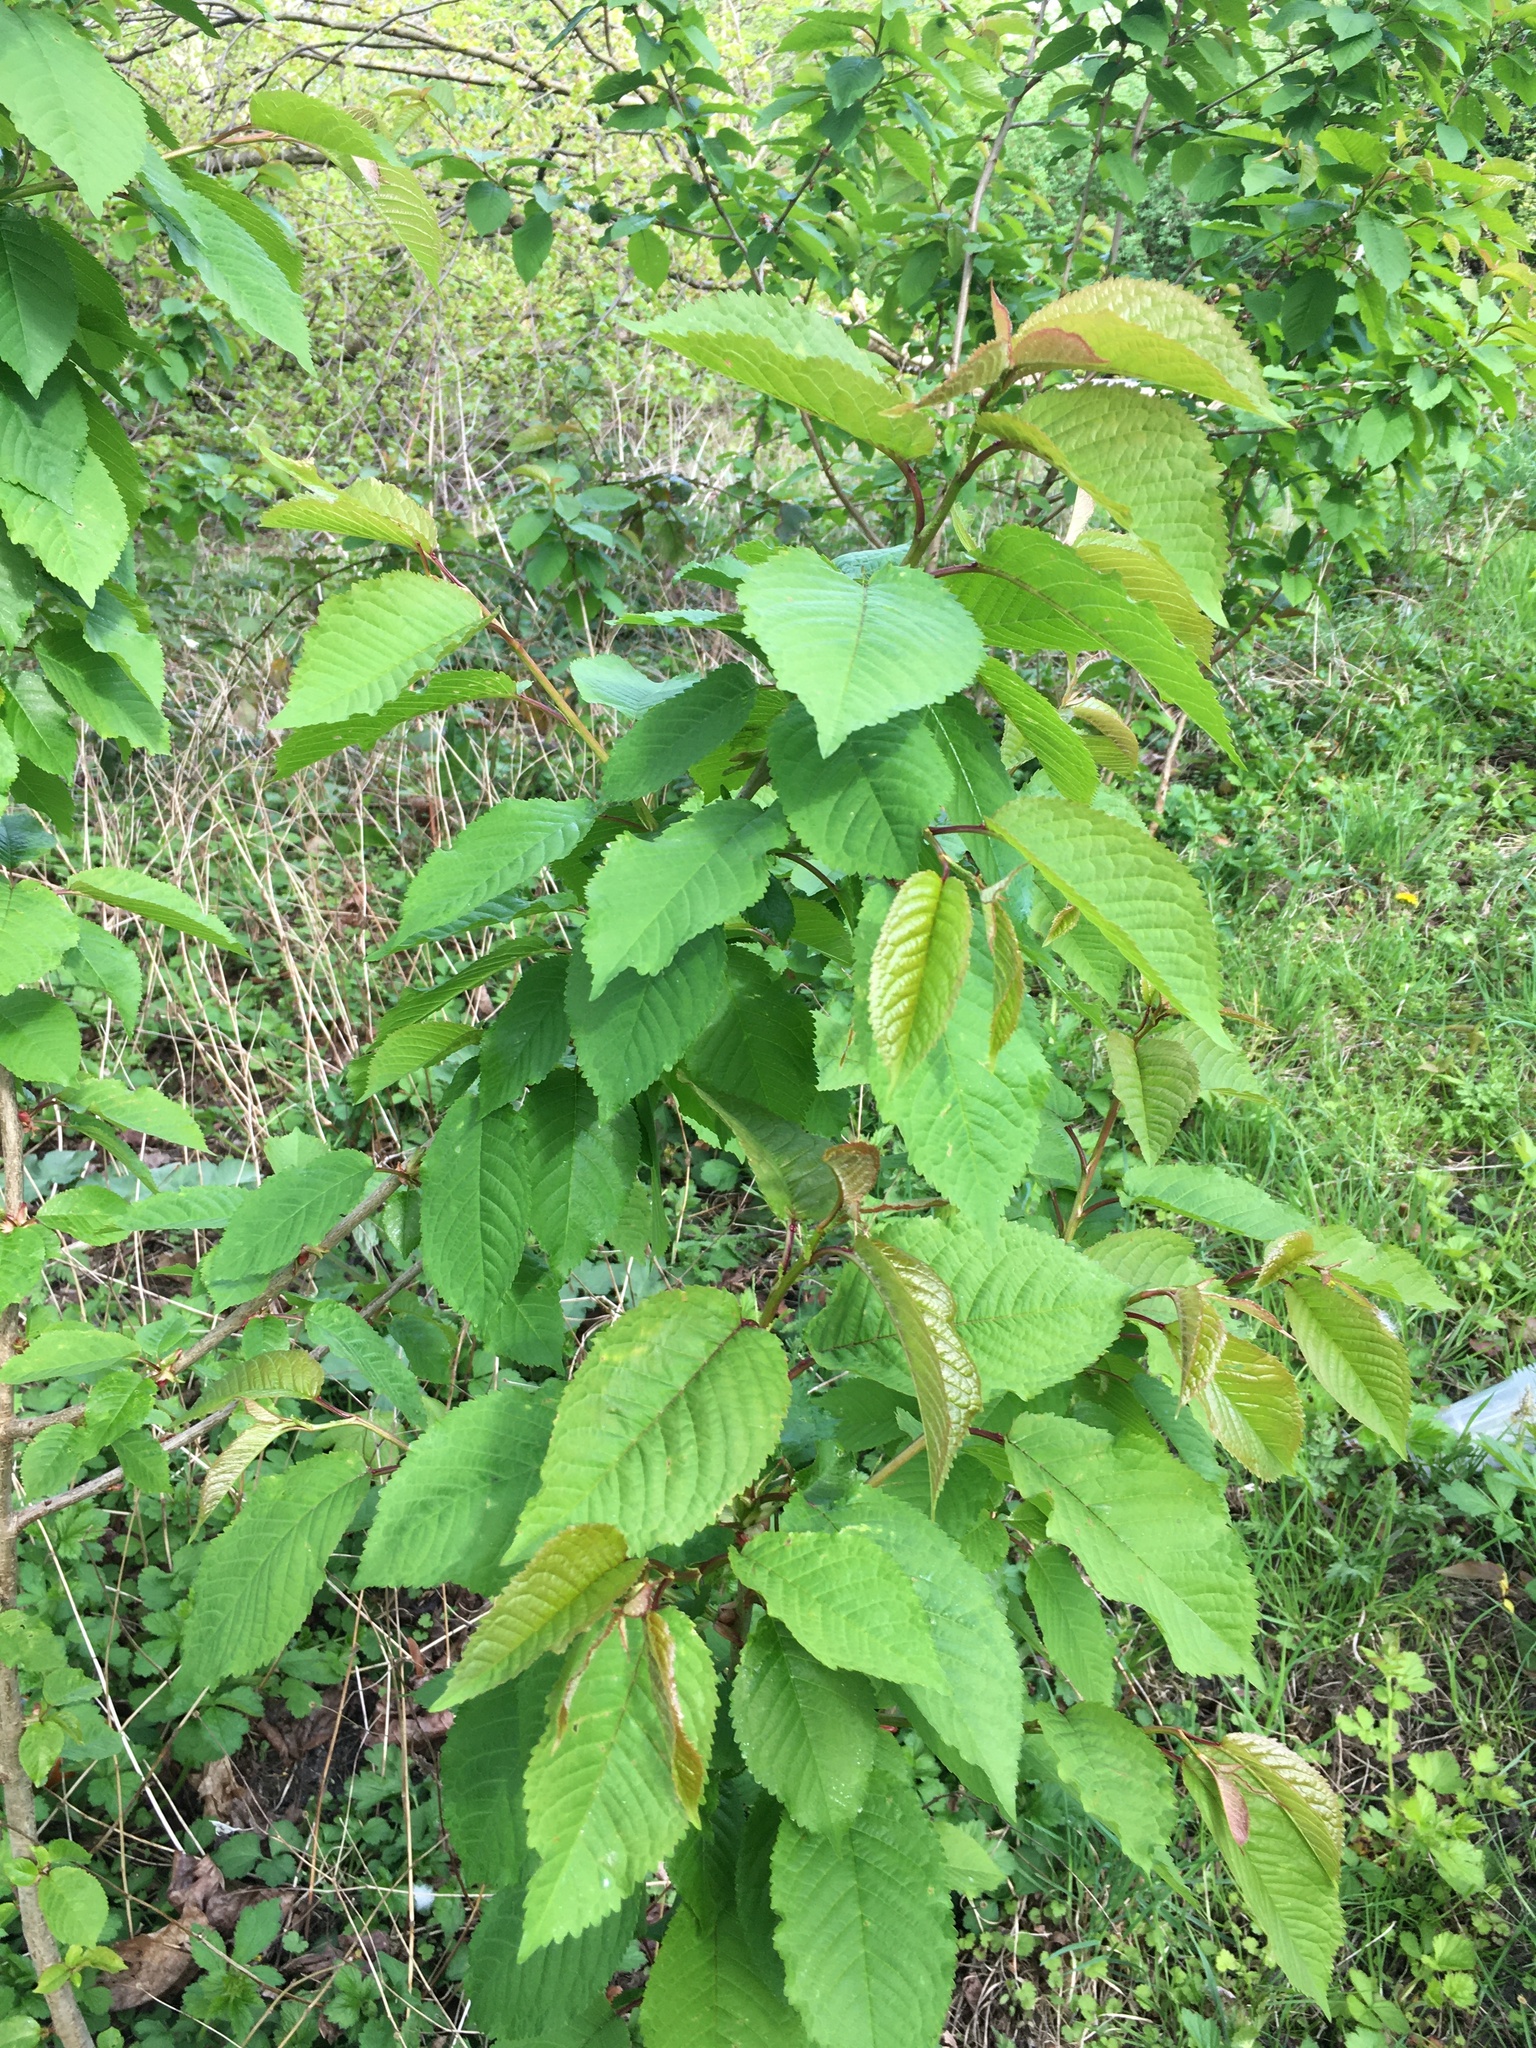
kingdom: Plantae
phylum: Tracheophyta
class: Magnoliopsida
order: Rosales
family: Rosaceae
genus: Prunus
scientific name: Prunus avium
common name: Sweet cherry
